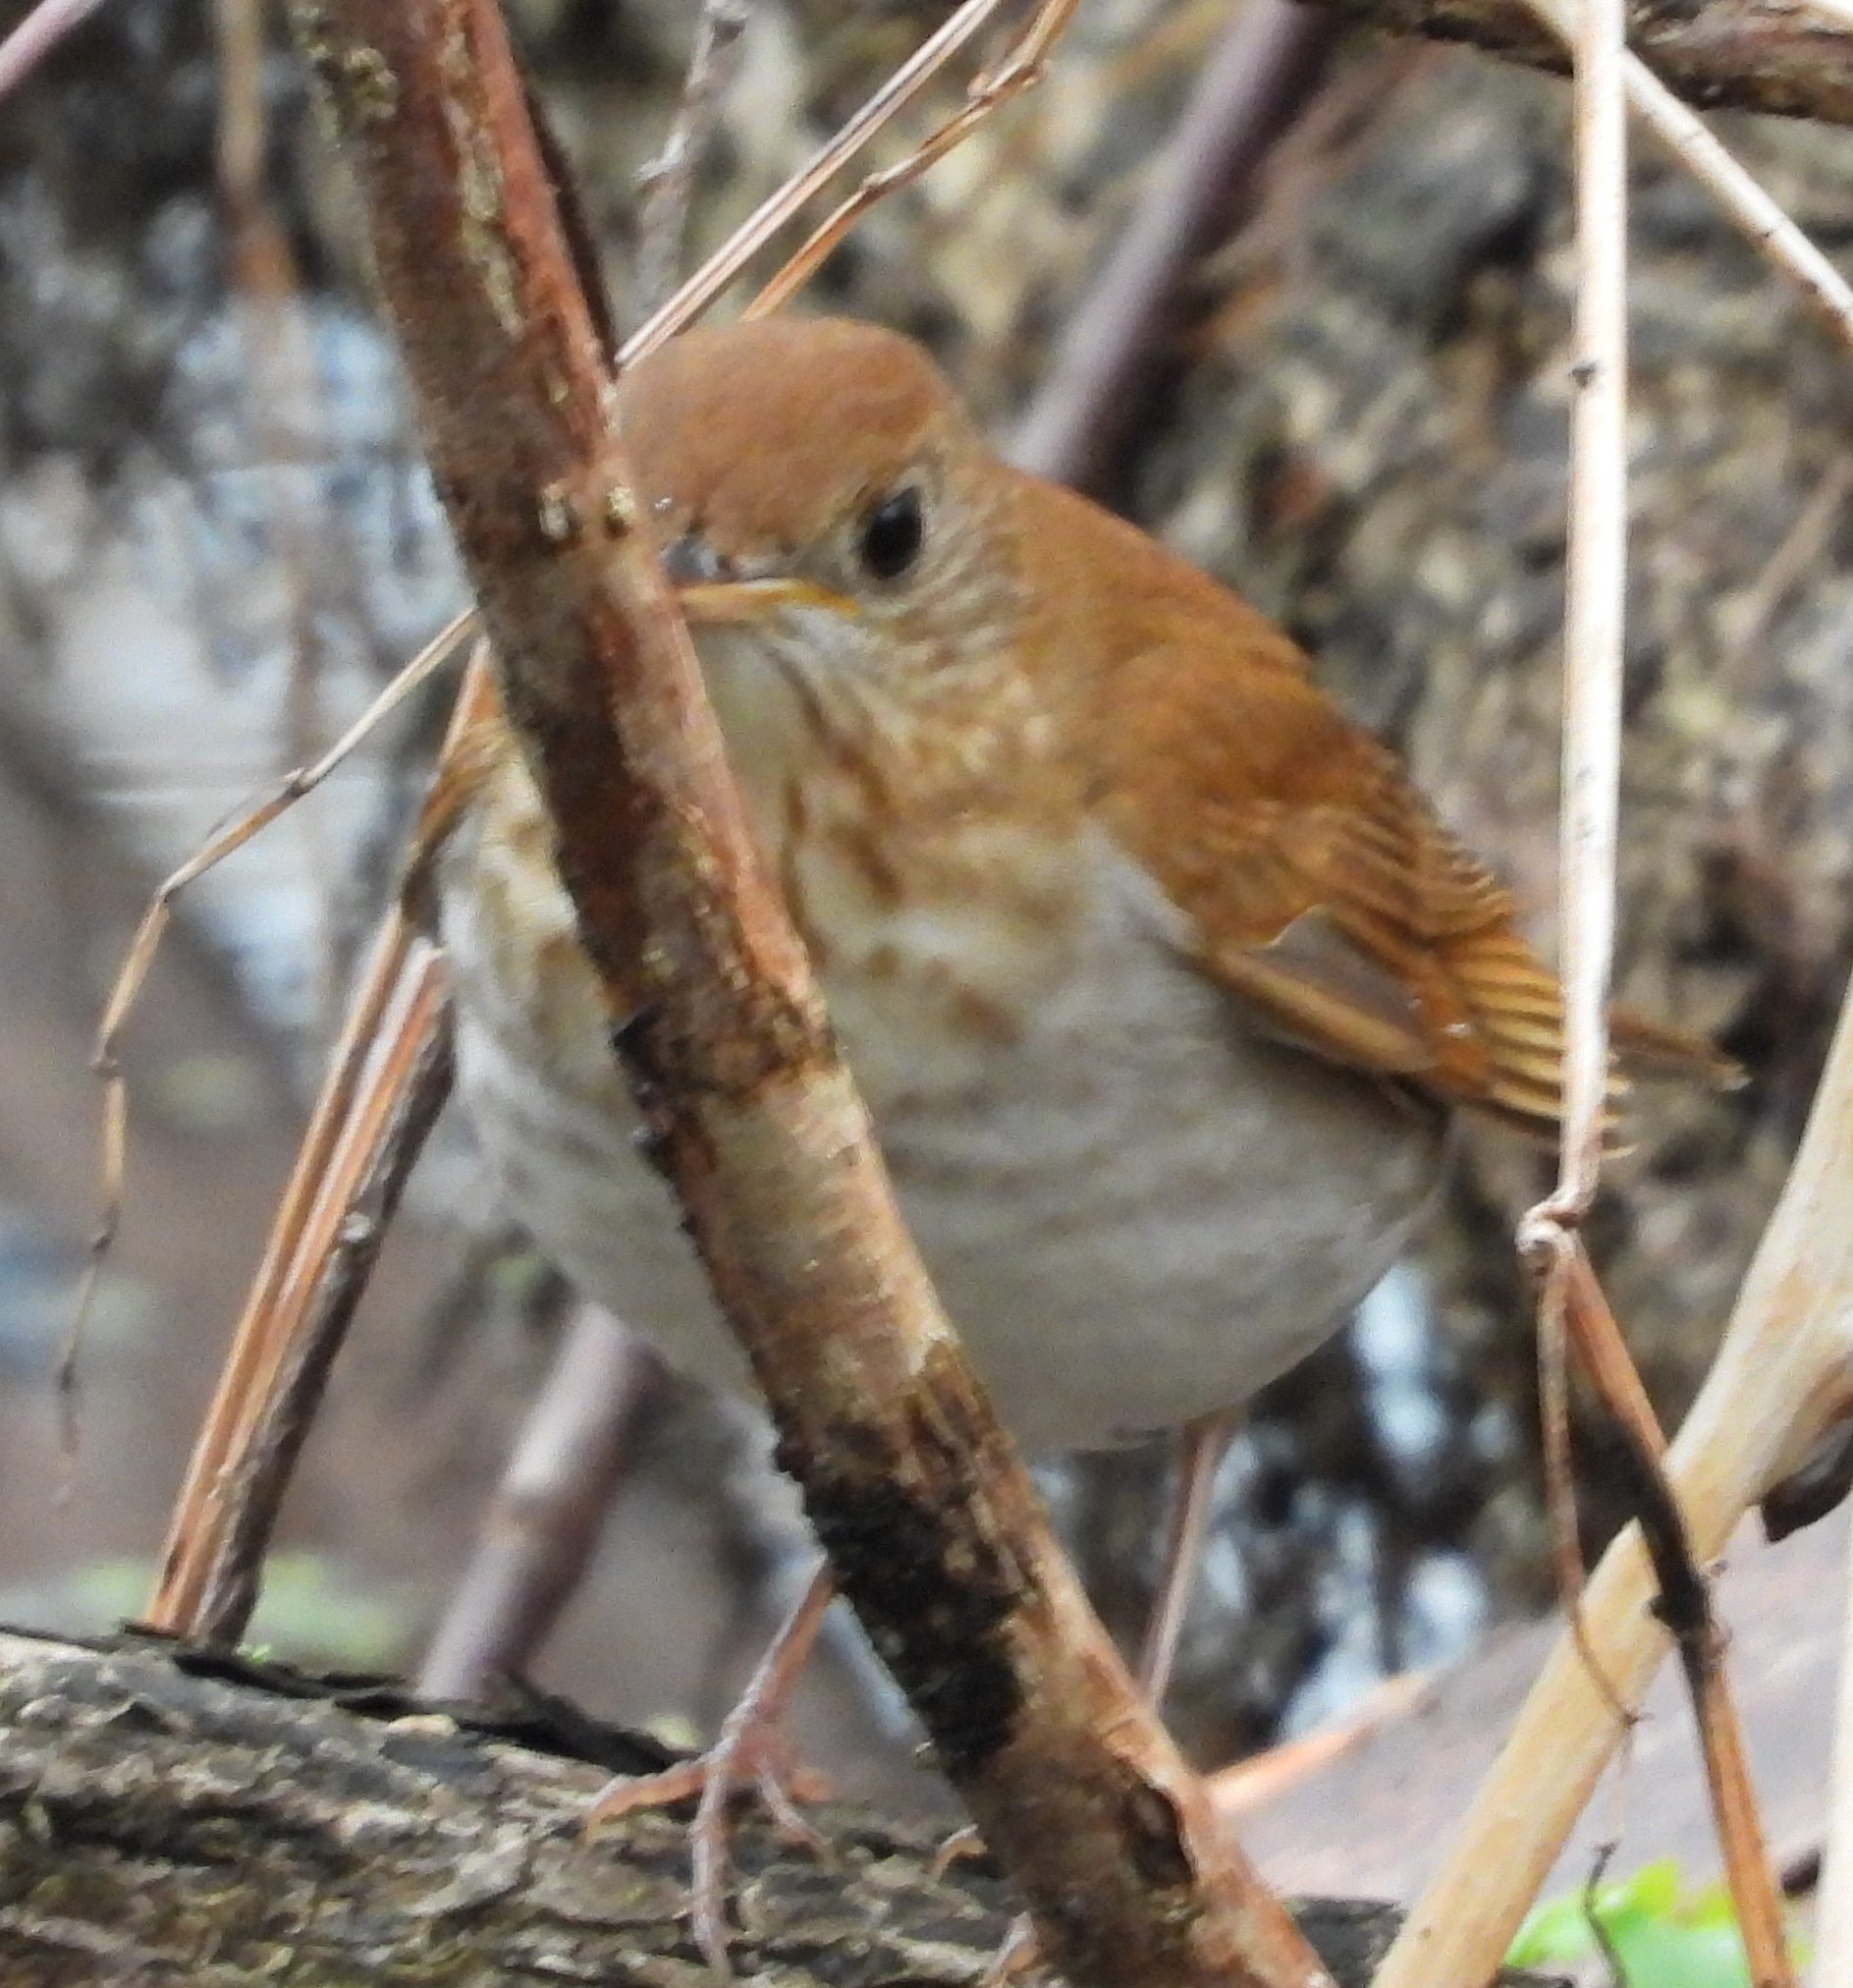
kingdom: Animalia
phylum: Chordata
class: Aves
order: Passeriformes
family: Turdidae
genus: Catharus
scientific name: Catharus fuscescens
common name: Veery
